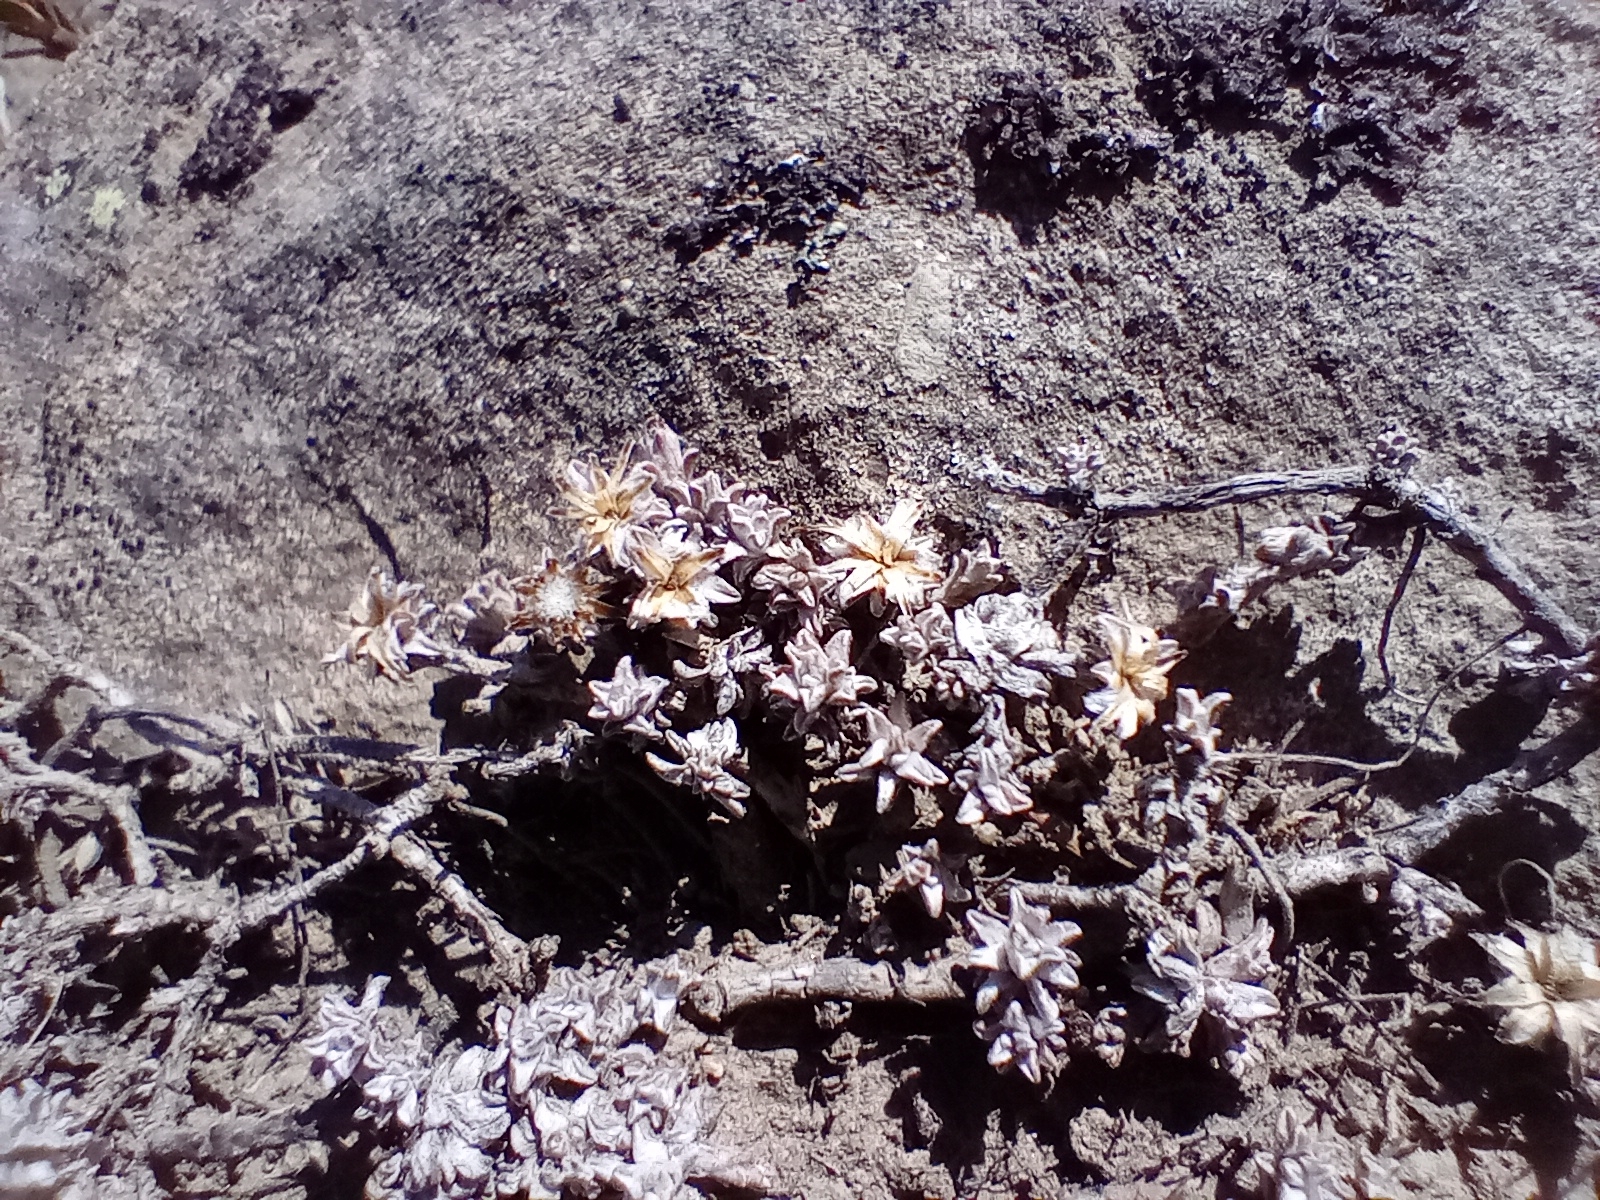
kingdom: Plantae
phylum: Tracheophyta
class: Magnoliopsida
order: Asterales
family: Asteraceae
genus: Raoulia
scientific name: Raoulia beauverdii
